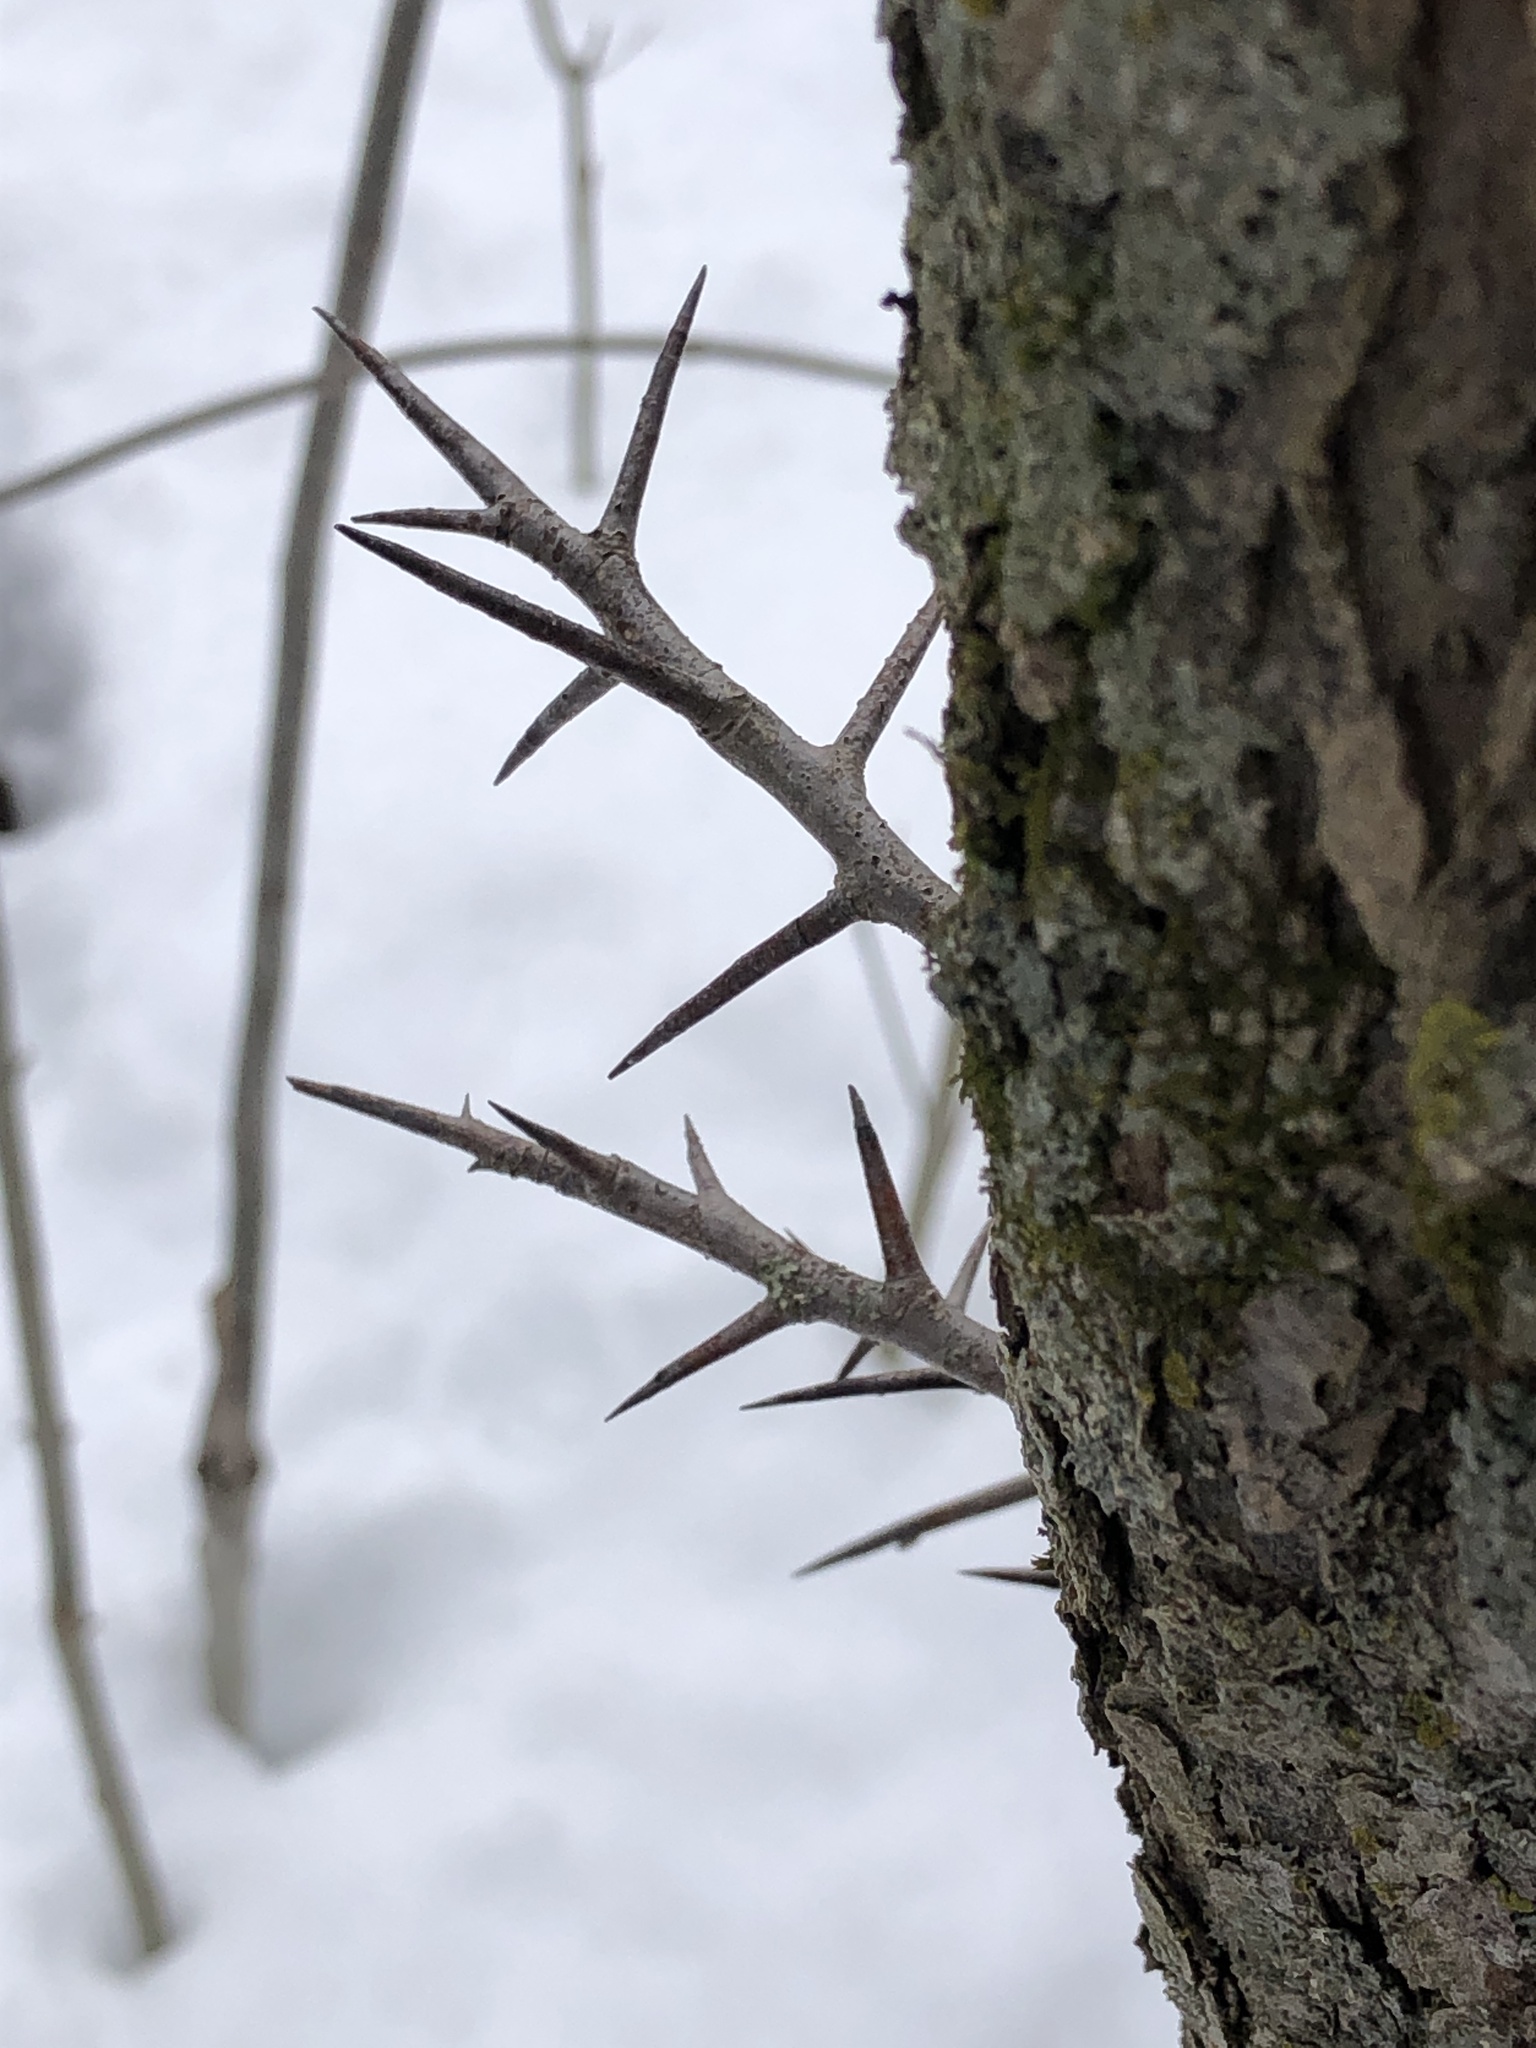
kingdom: Plantae
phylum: Tracheophyta
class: Magnoliopsida
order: Rosales
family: Rosaceae
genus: Crataegus
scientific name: Crataegus
